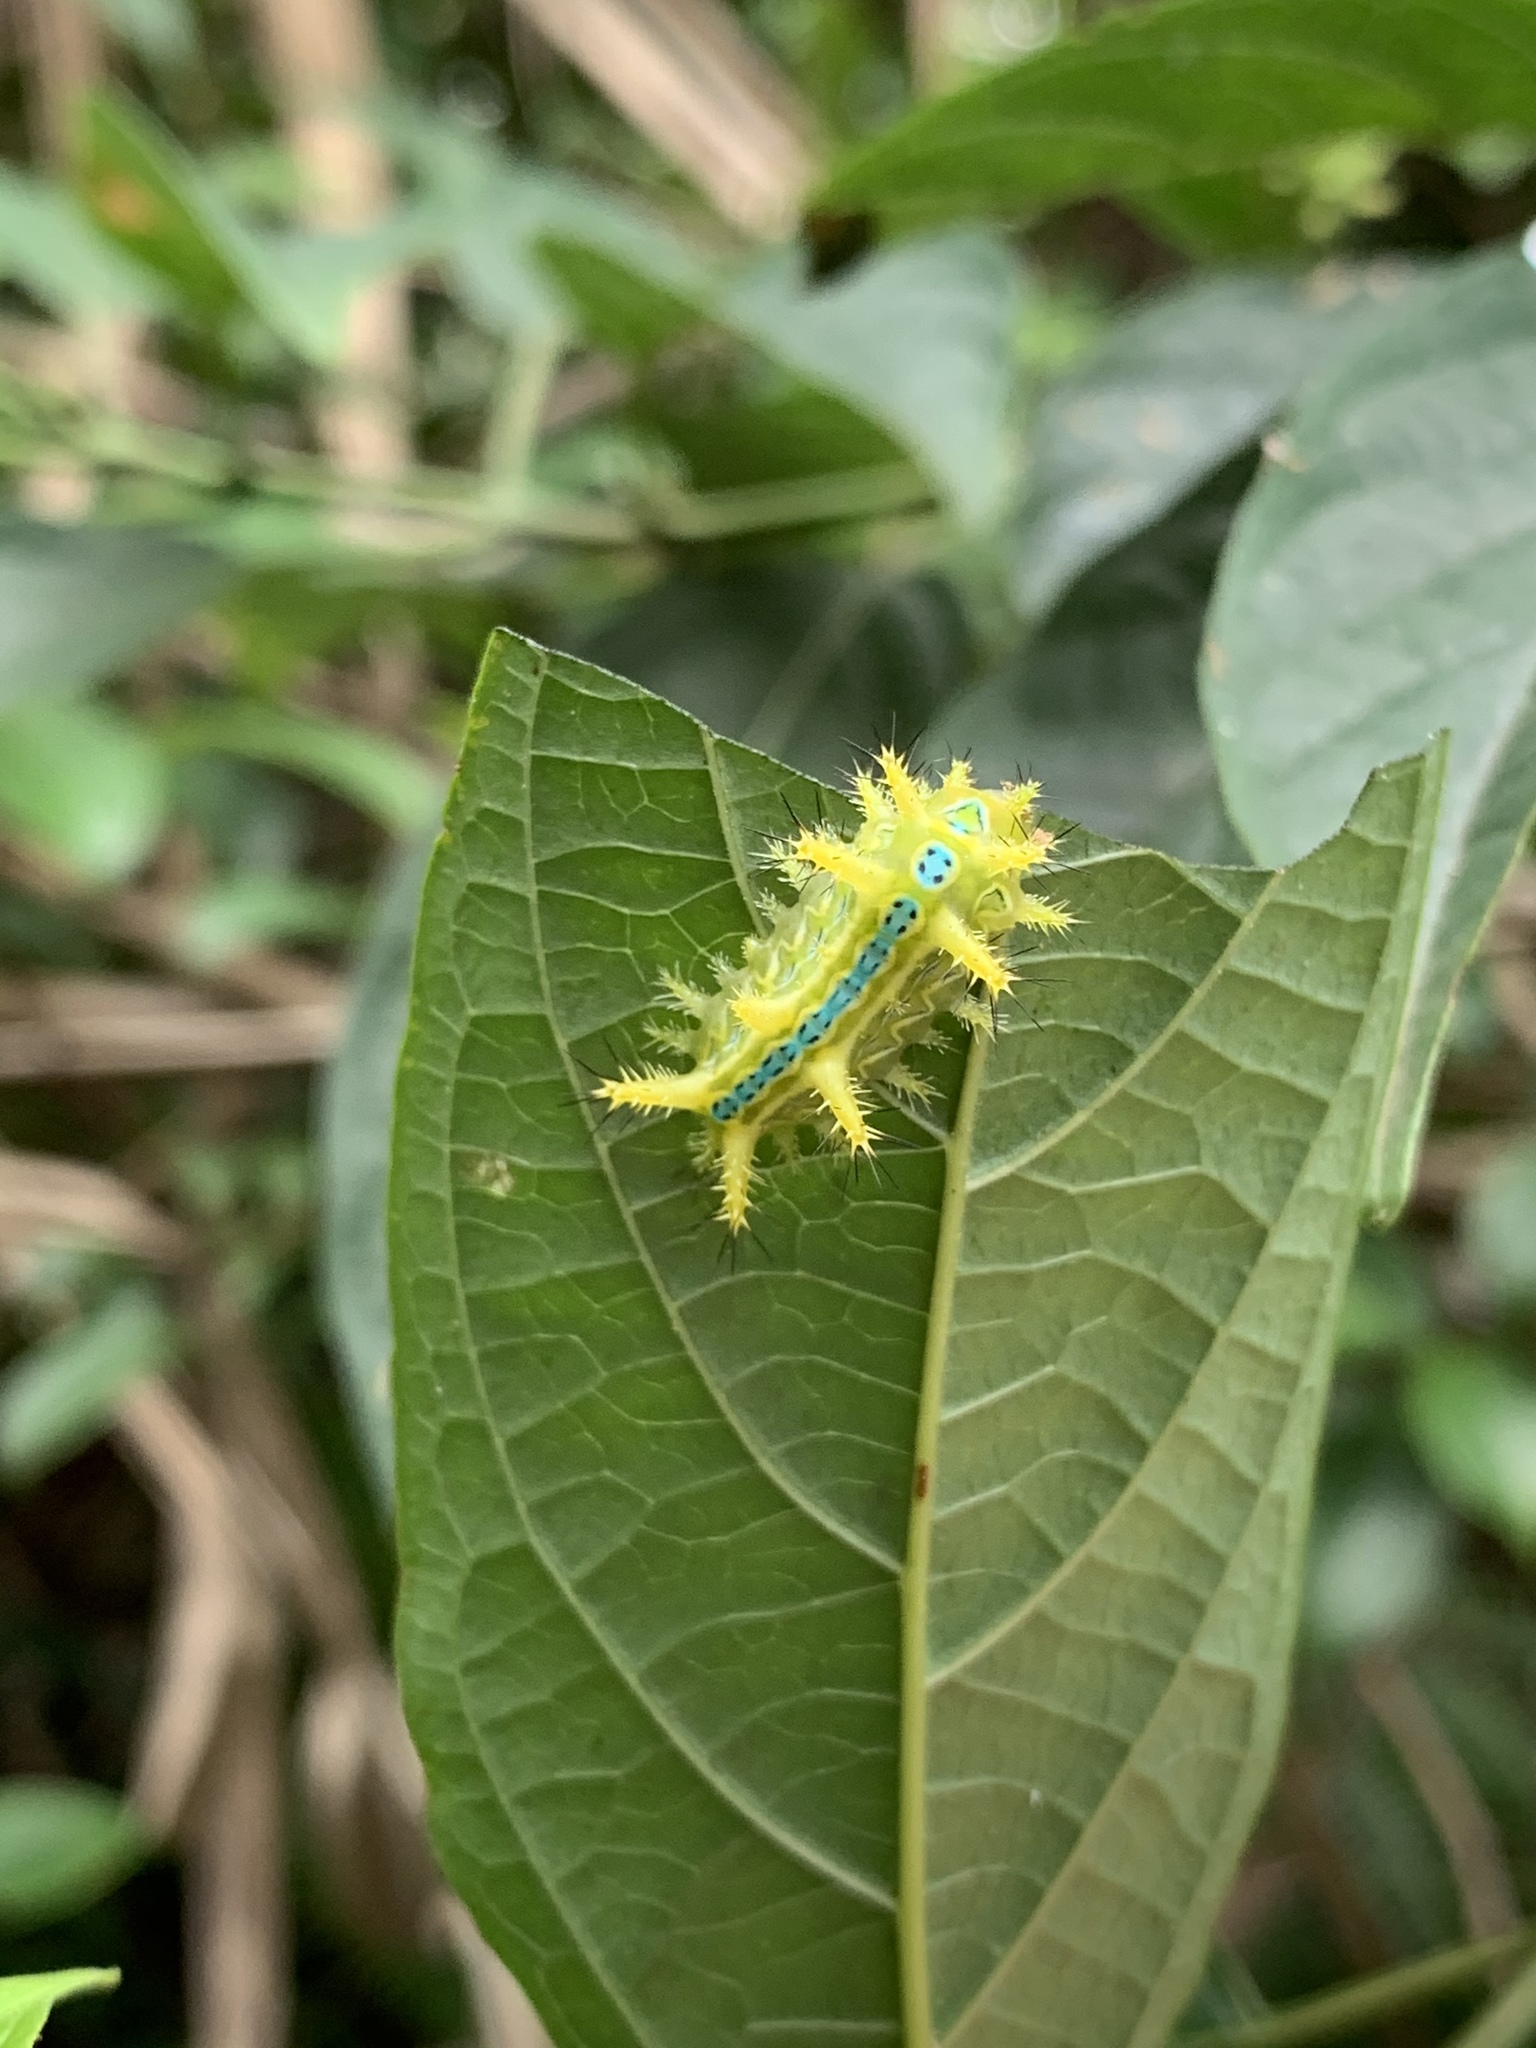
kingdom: Animalia
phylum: Arthropoda
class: Insecta
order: Lepidoptera
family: Limacodidae
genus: Phlossa
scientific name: Phlossa conjuncta
